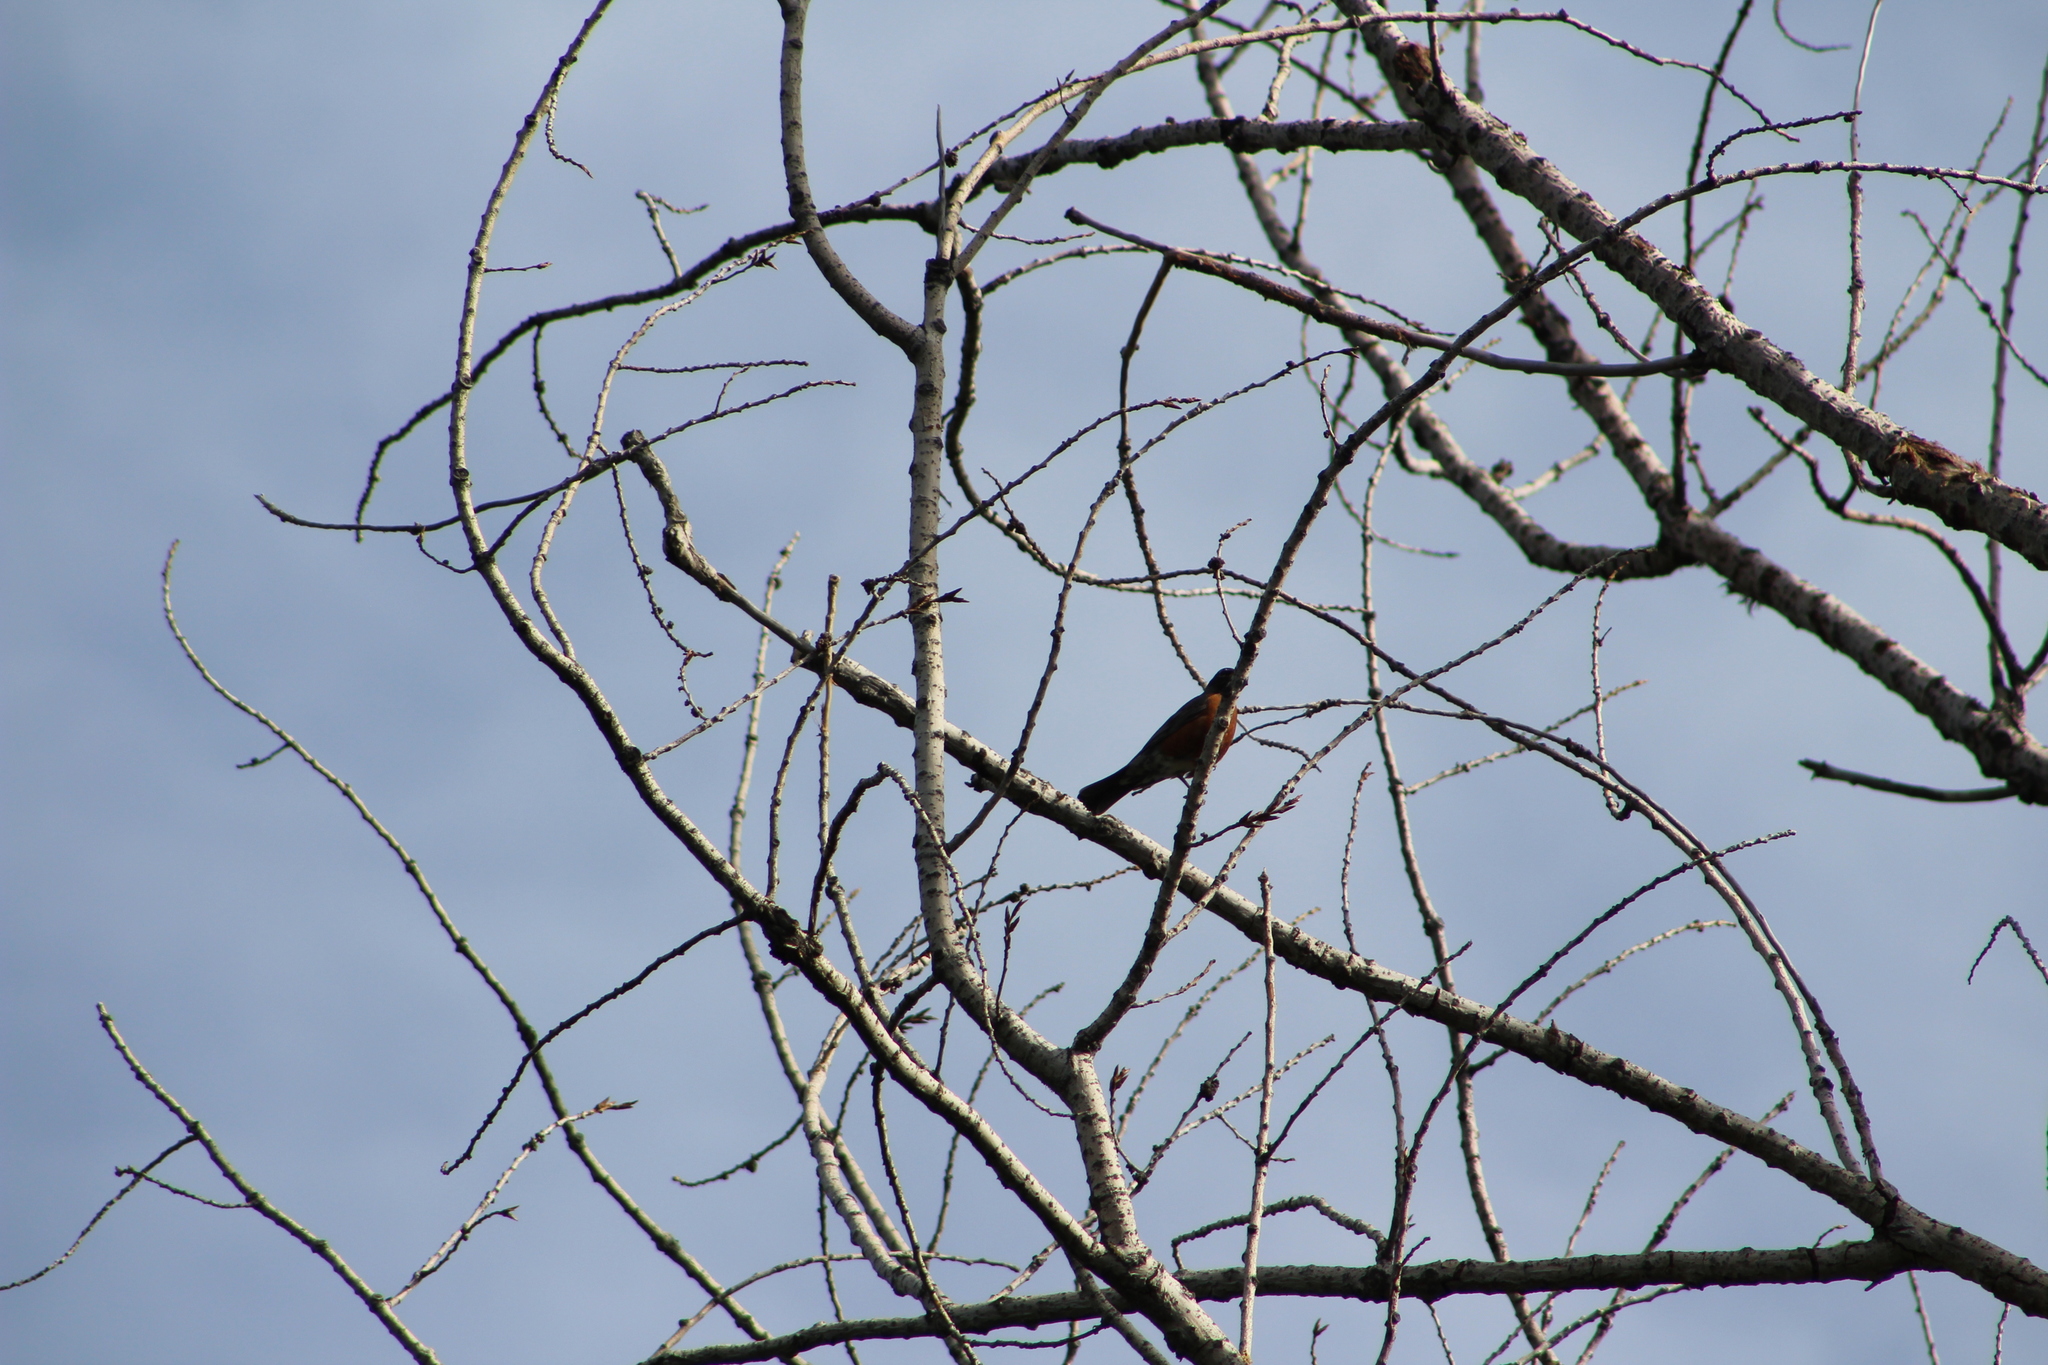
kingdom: Animalia
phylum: Chordata
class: Aves
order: Passeriformes
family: Turdidae
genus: Turdus
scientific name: Turdus migratorius
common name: American robin
